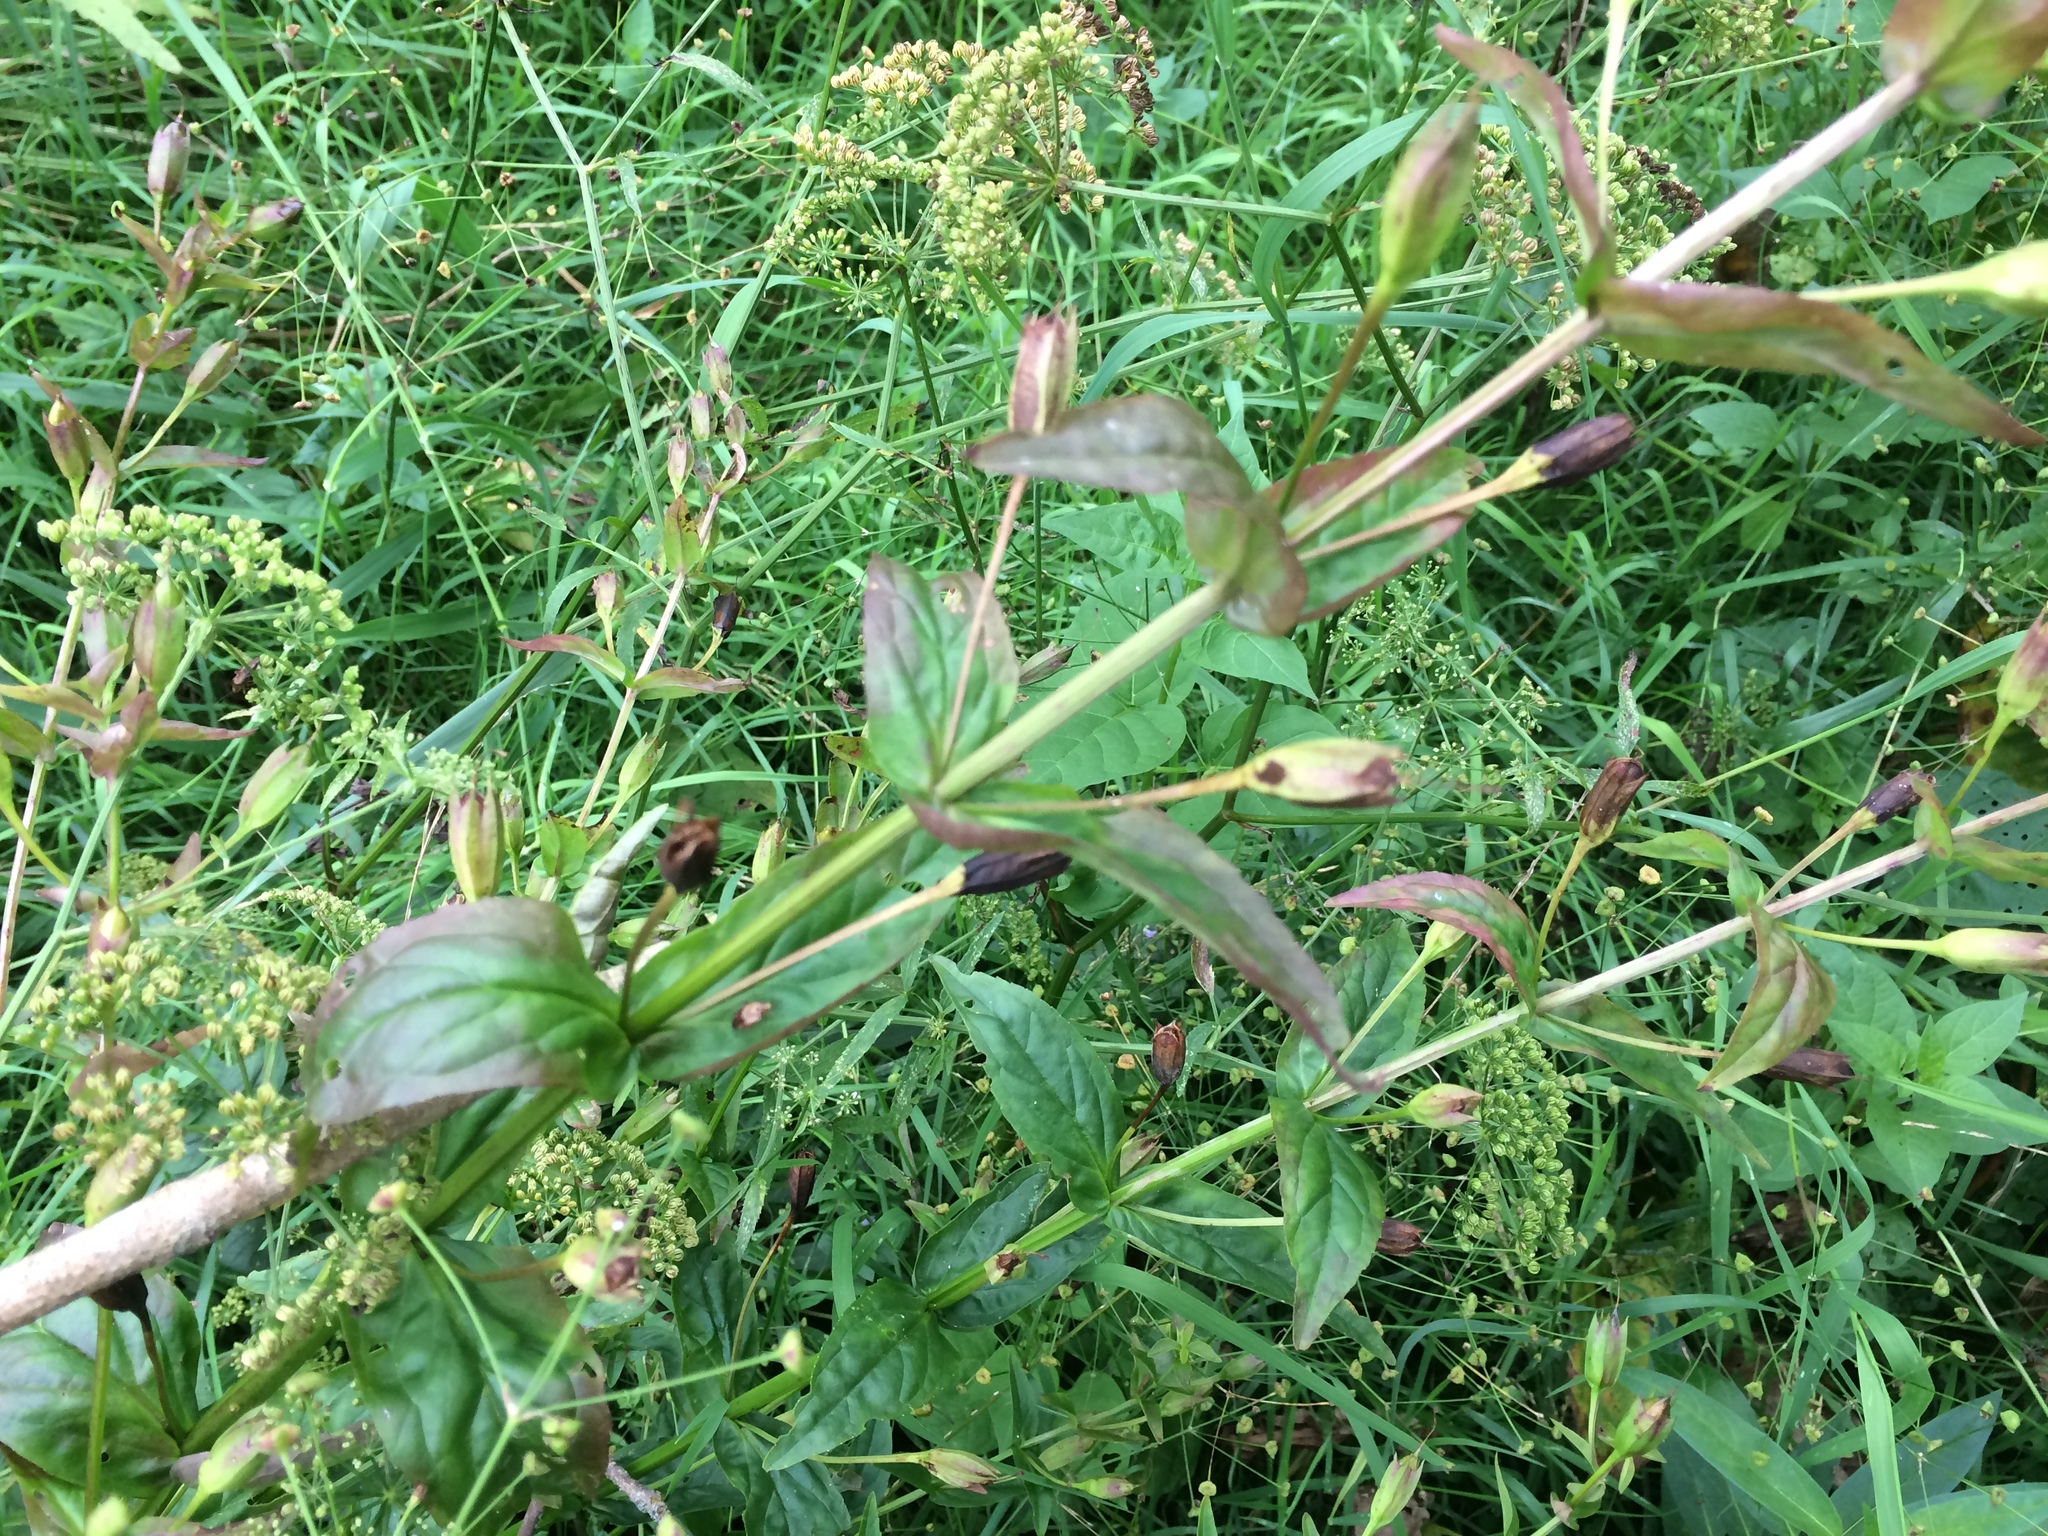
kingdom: Plantae
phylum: Tracheophyta
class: Magnoliopsida
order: Lamiales
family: Phrymaceae
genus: Mimulus
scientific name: Mimulus ringens
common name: Allegheny monkeyflower
